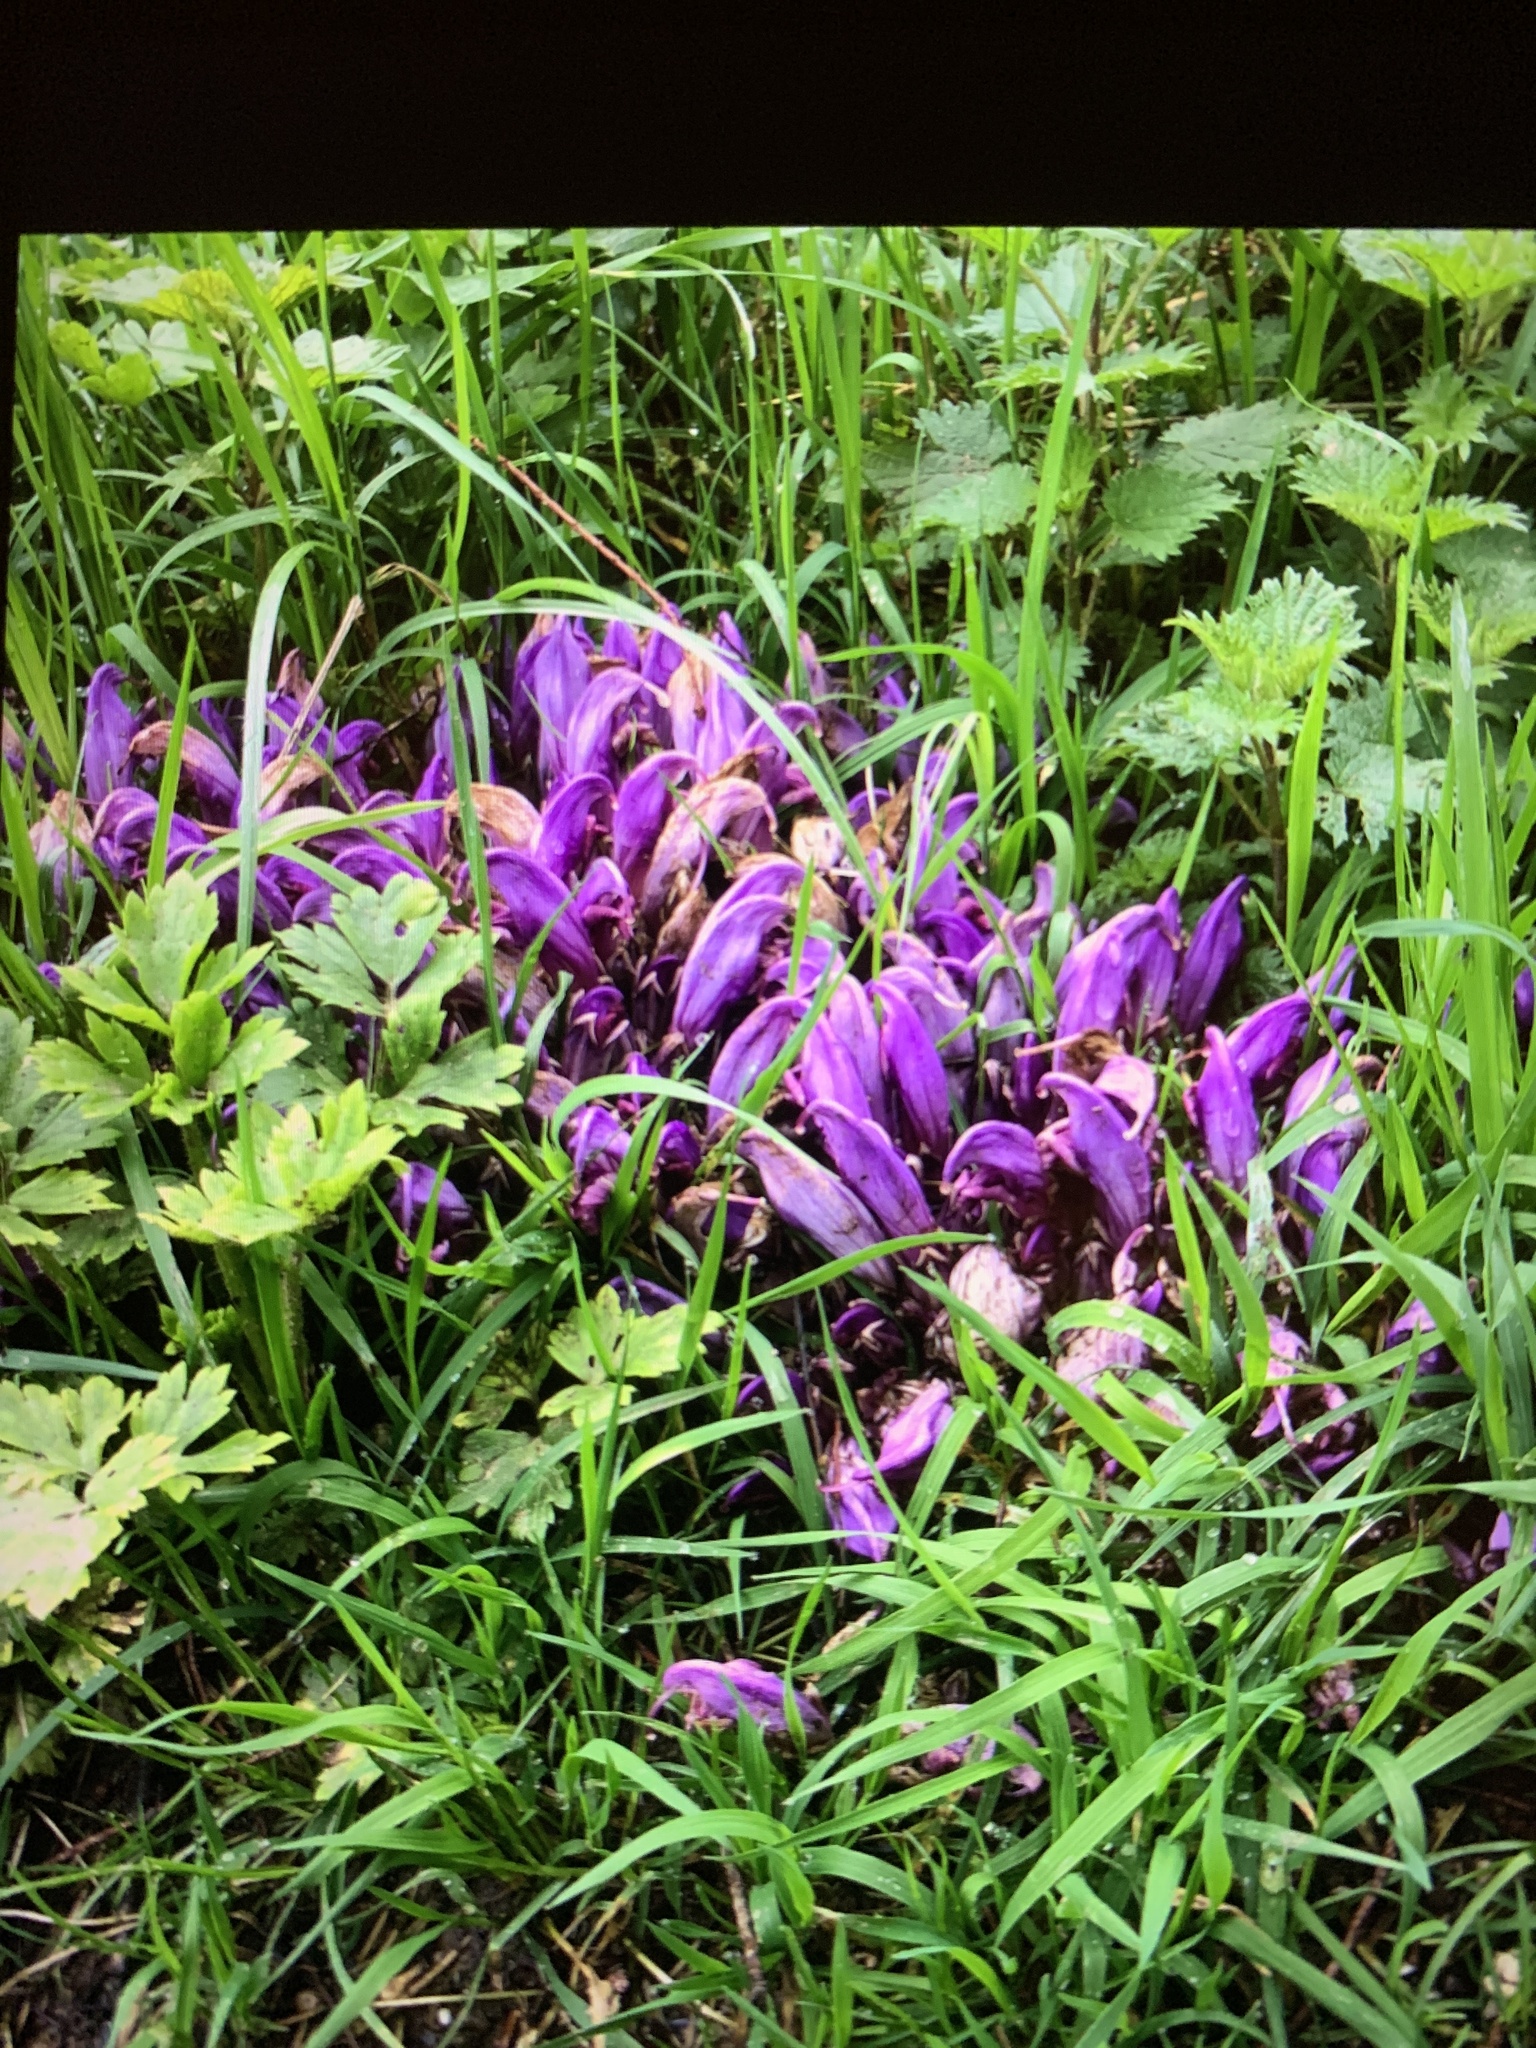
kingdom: Plantae
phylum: Tracheophyta
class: Magnoliopsida
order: Lamiales
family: Orobanchaceae
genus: Lathraea
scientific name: Lathraea clandestina
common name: Purple toothwort
